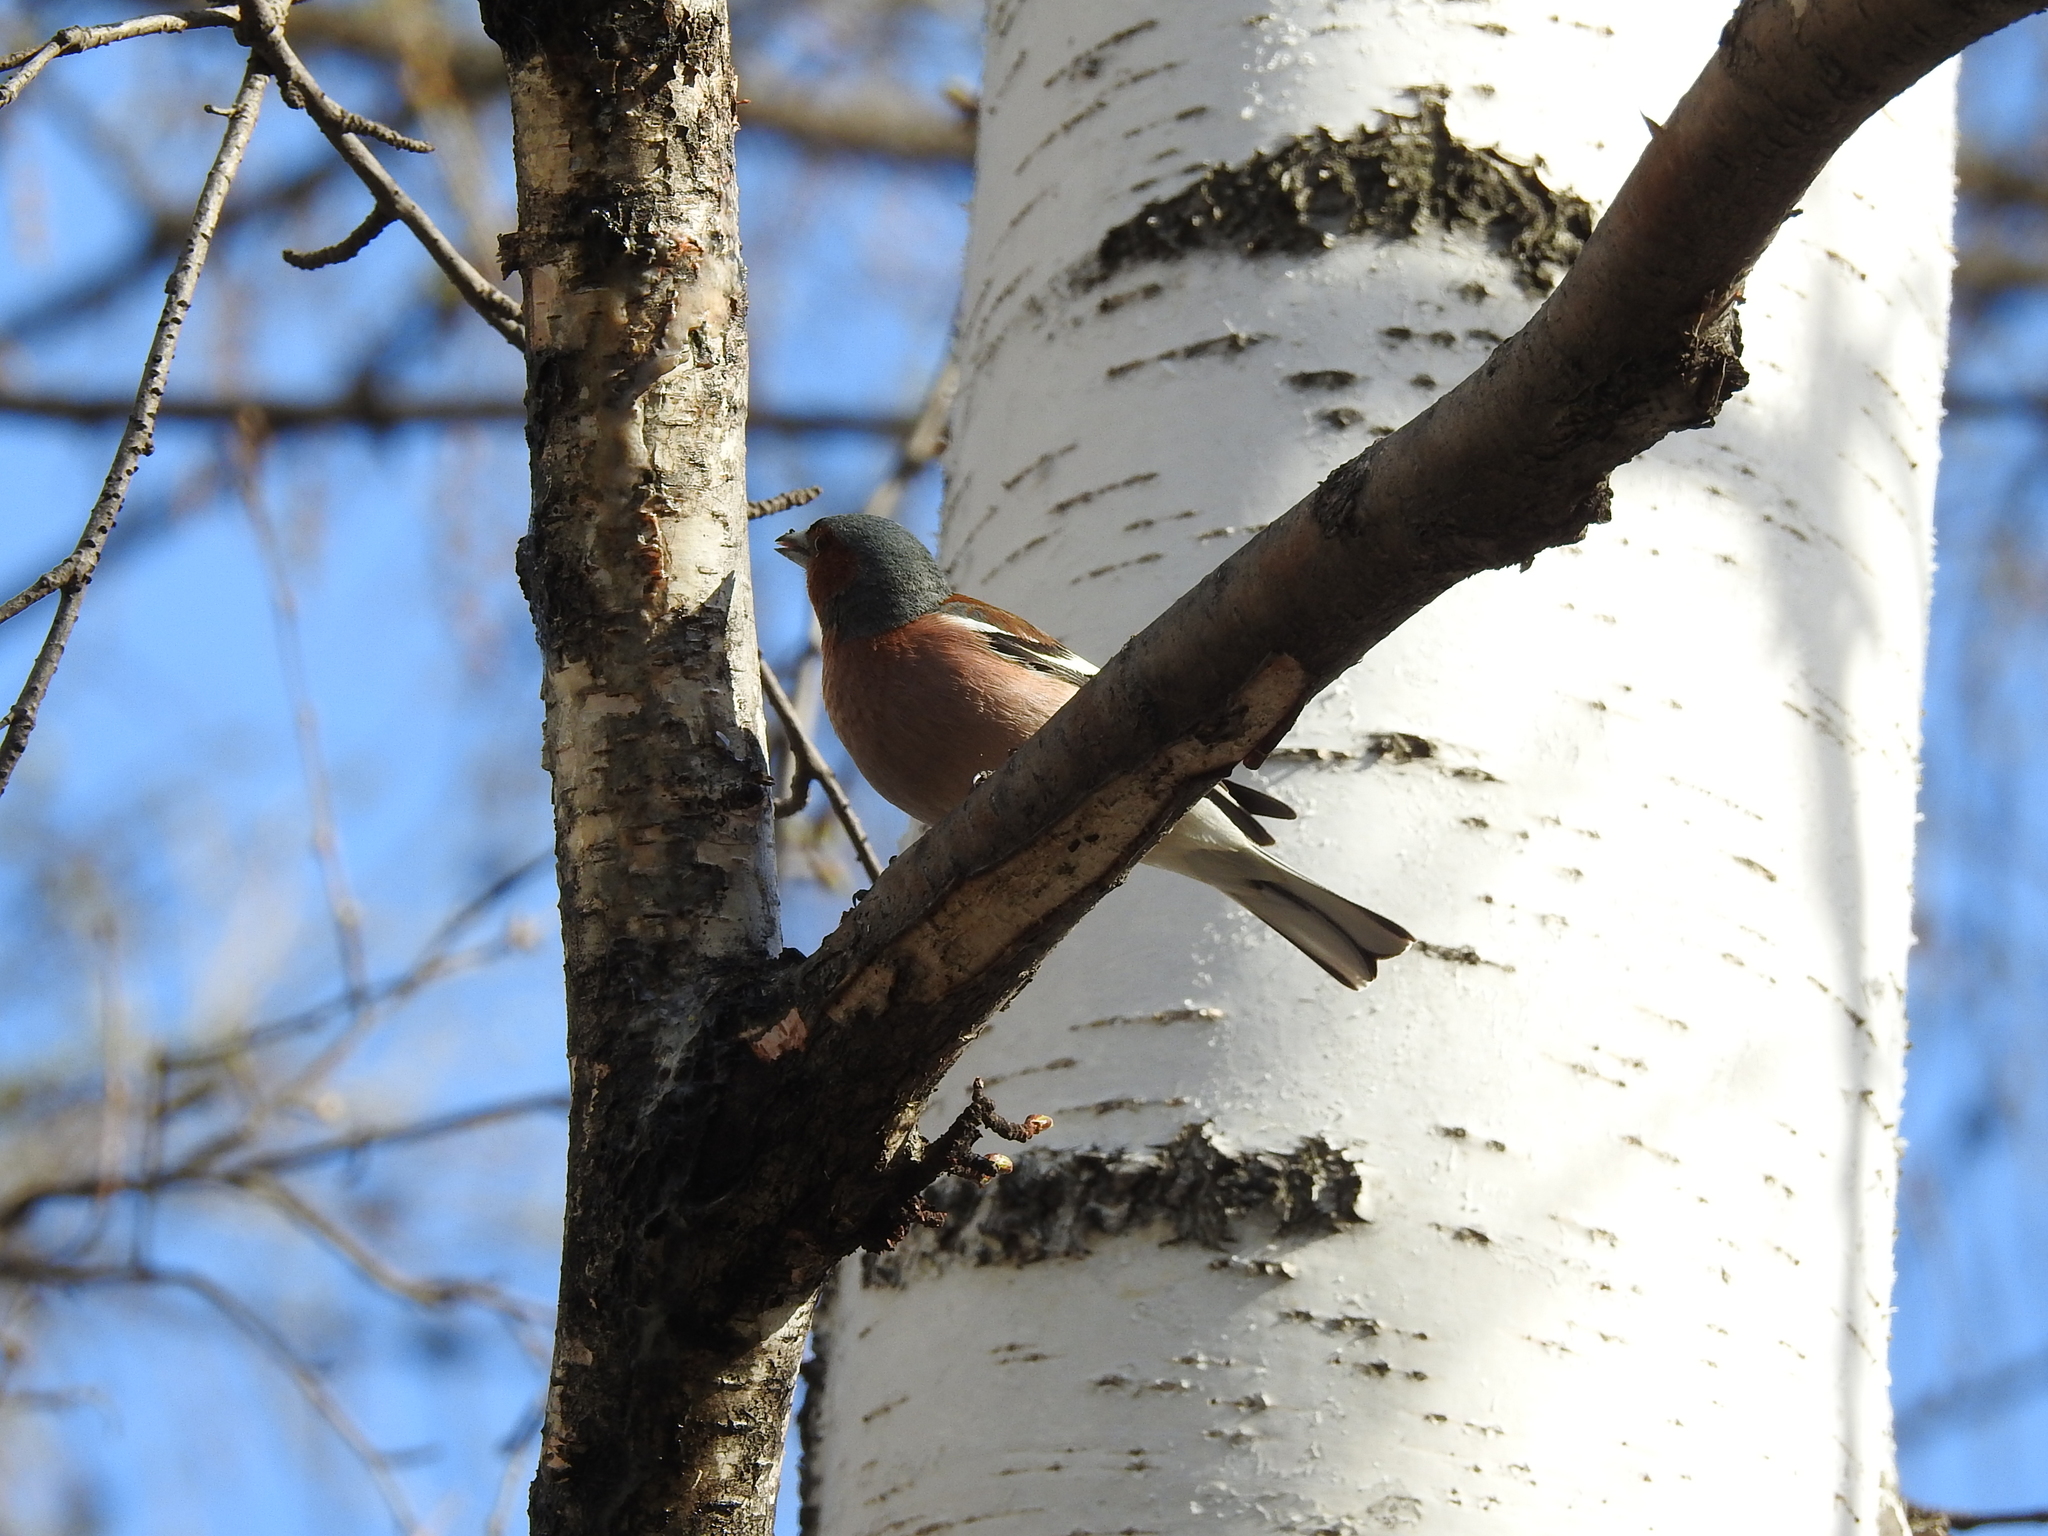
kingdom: Animalia
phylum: Chordata
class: Aves
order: Passeriformes
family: Fringillidae
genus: Fringilla
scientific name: Fringilla coelebs
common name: Common chaffinch
